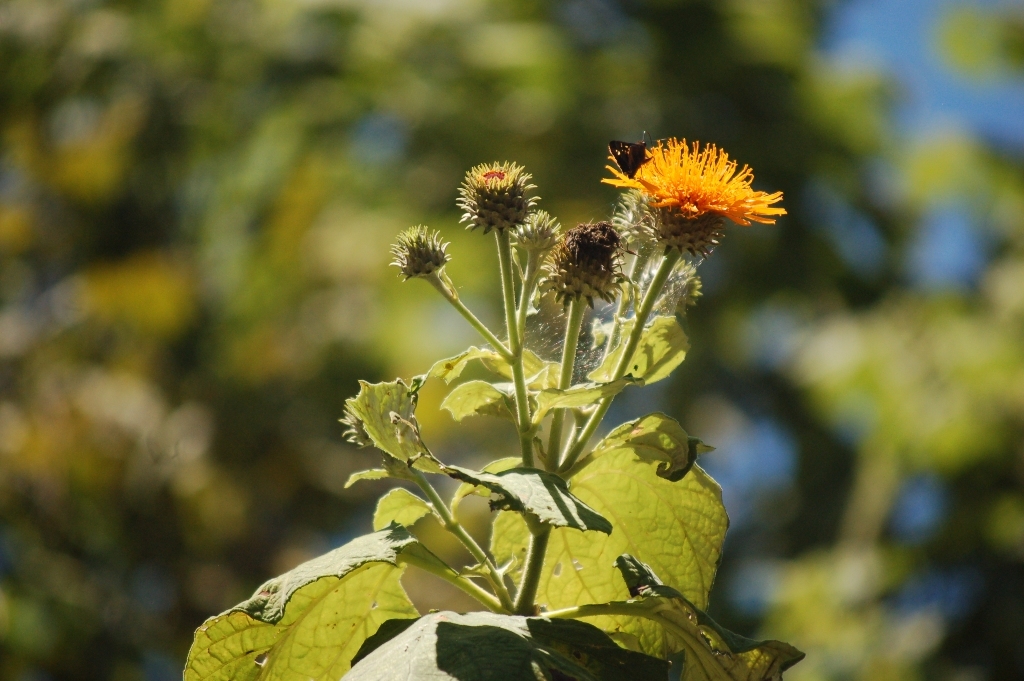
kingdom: Plantae
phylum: Tracheophyta
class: Magnoliopsida
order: Asterales
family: Asteraceae
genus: Sinclairia
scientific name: Sinclairia andrieuxii
